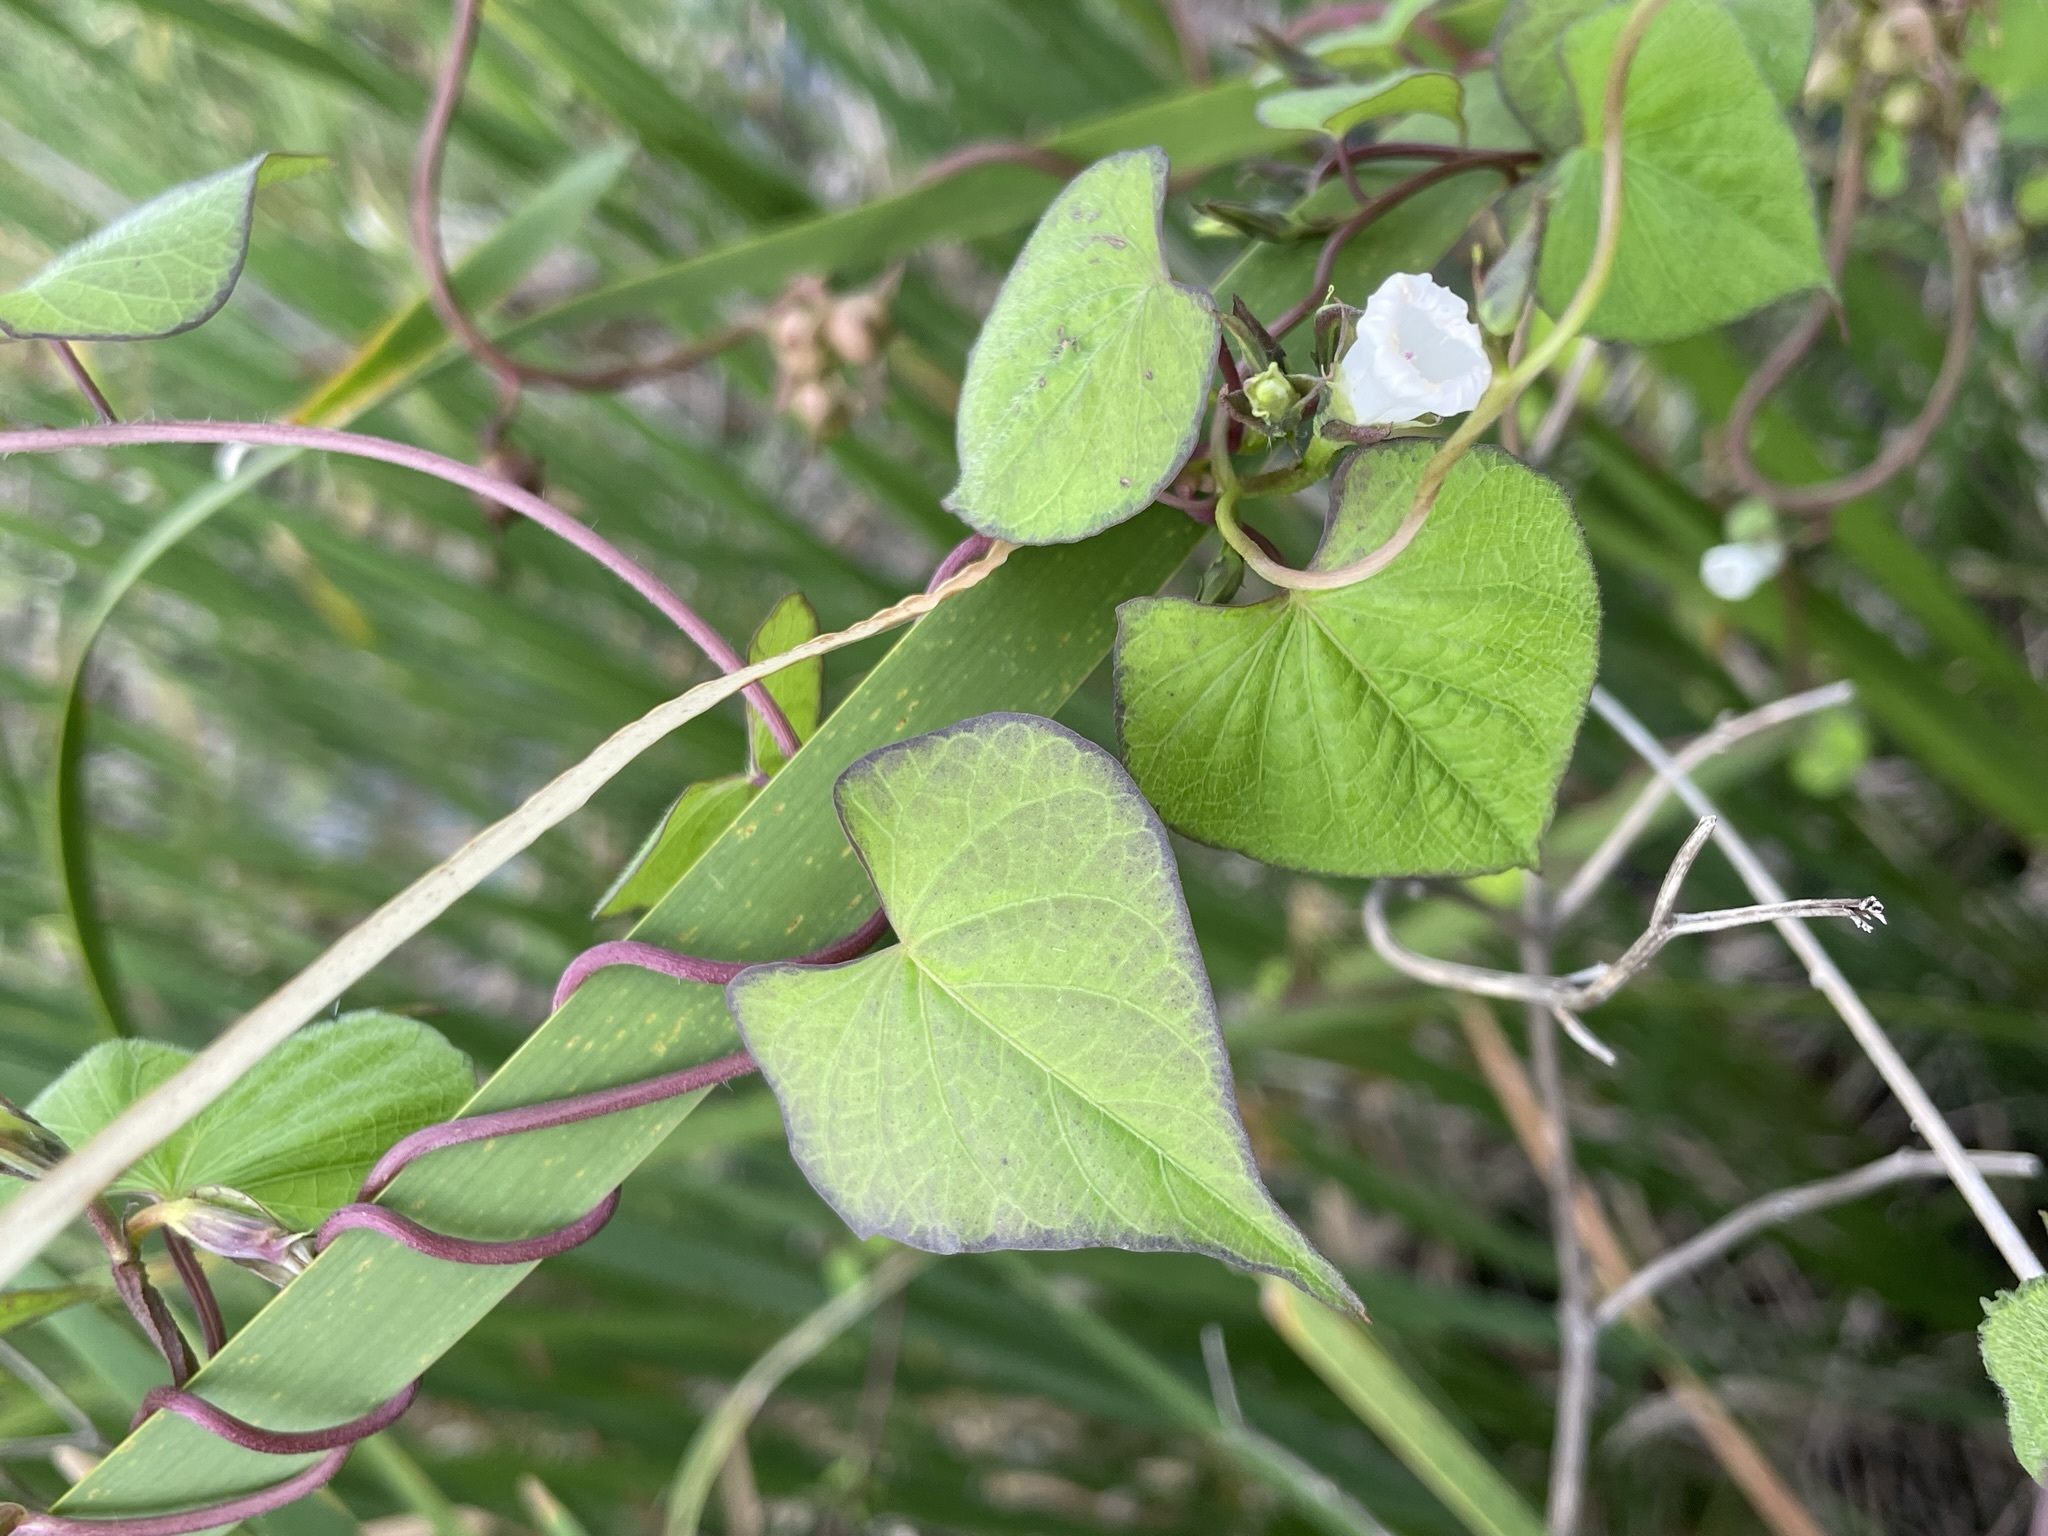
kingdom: Plantae
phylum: Tracheophyta
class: Magnoliopsida
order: Solanales
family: Convolvulaceae
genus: Ipomoea
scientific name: Ipomoea lacunosa
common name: White morning-glory
